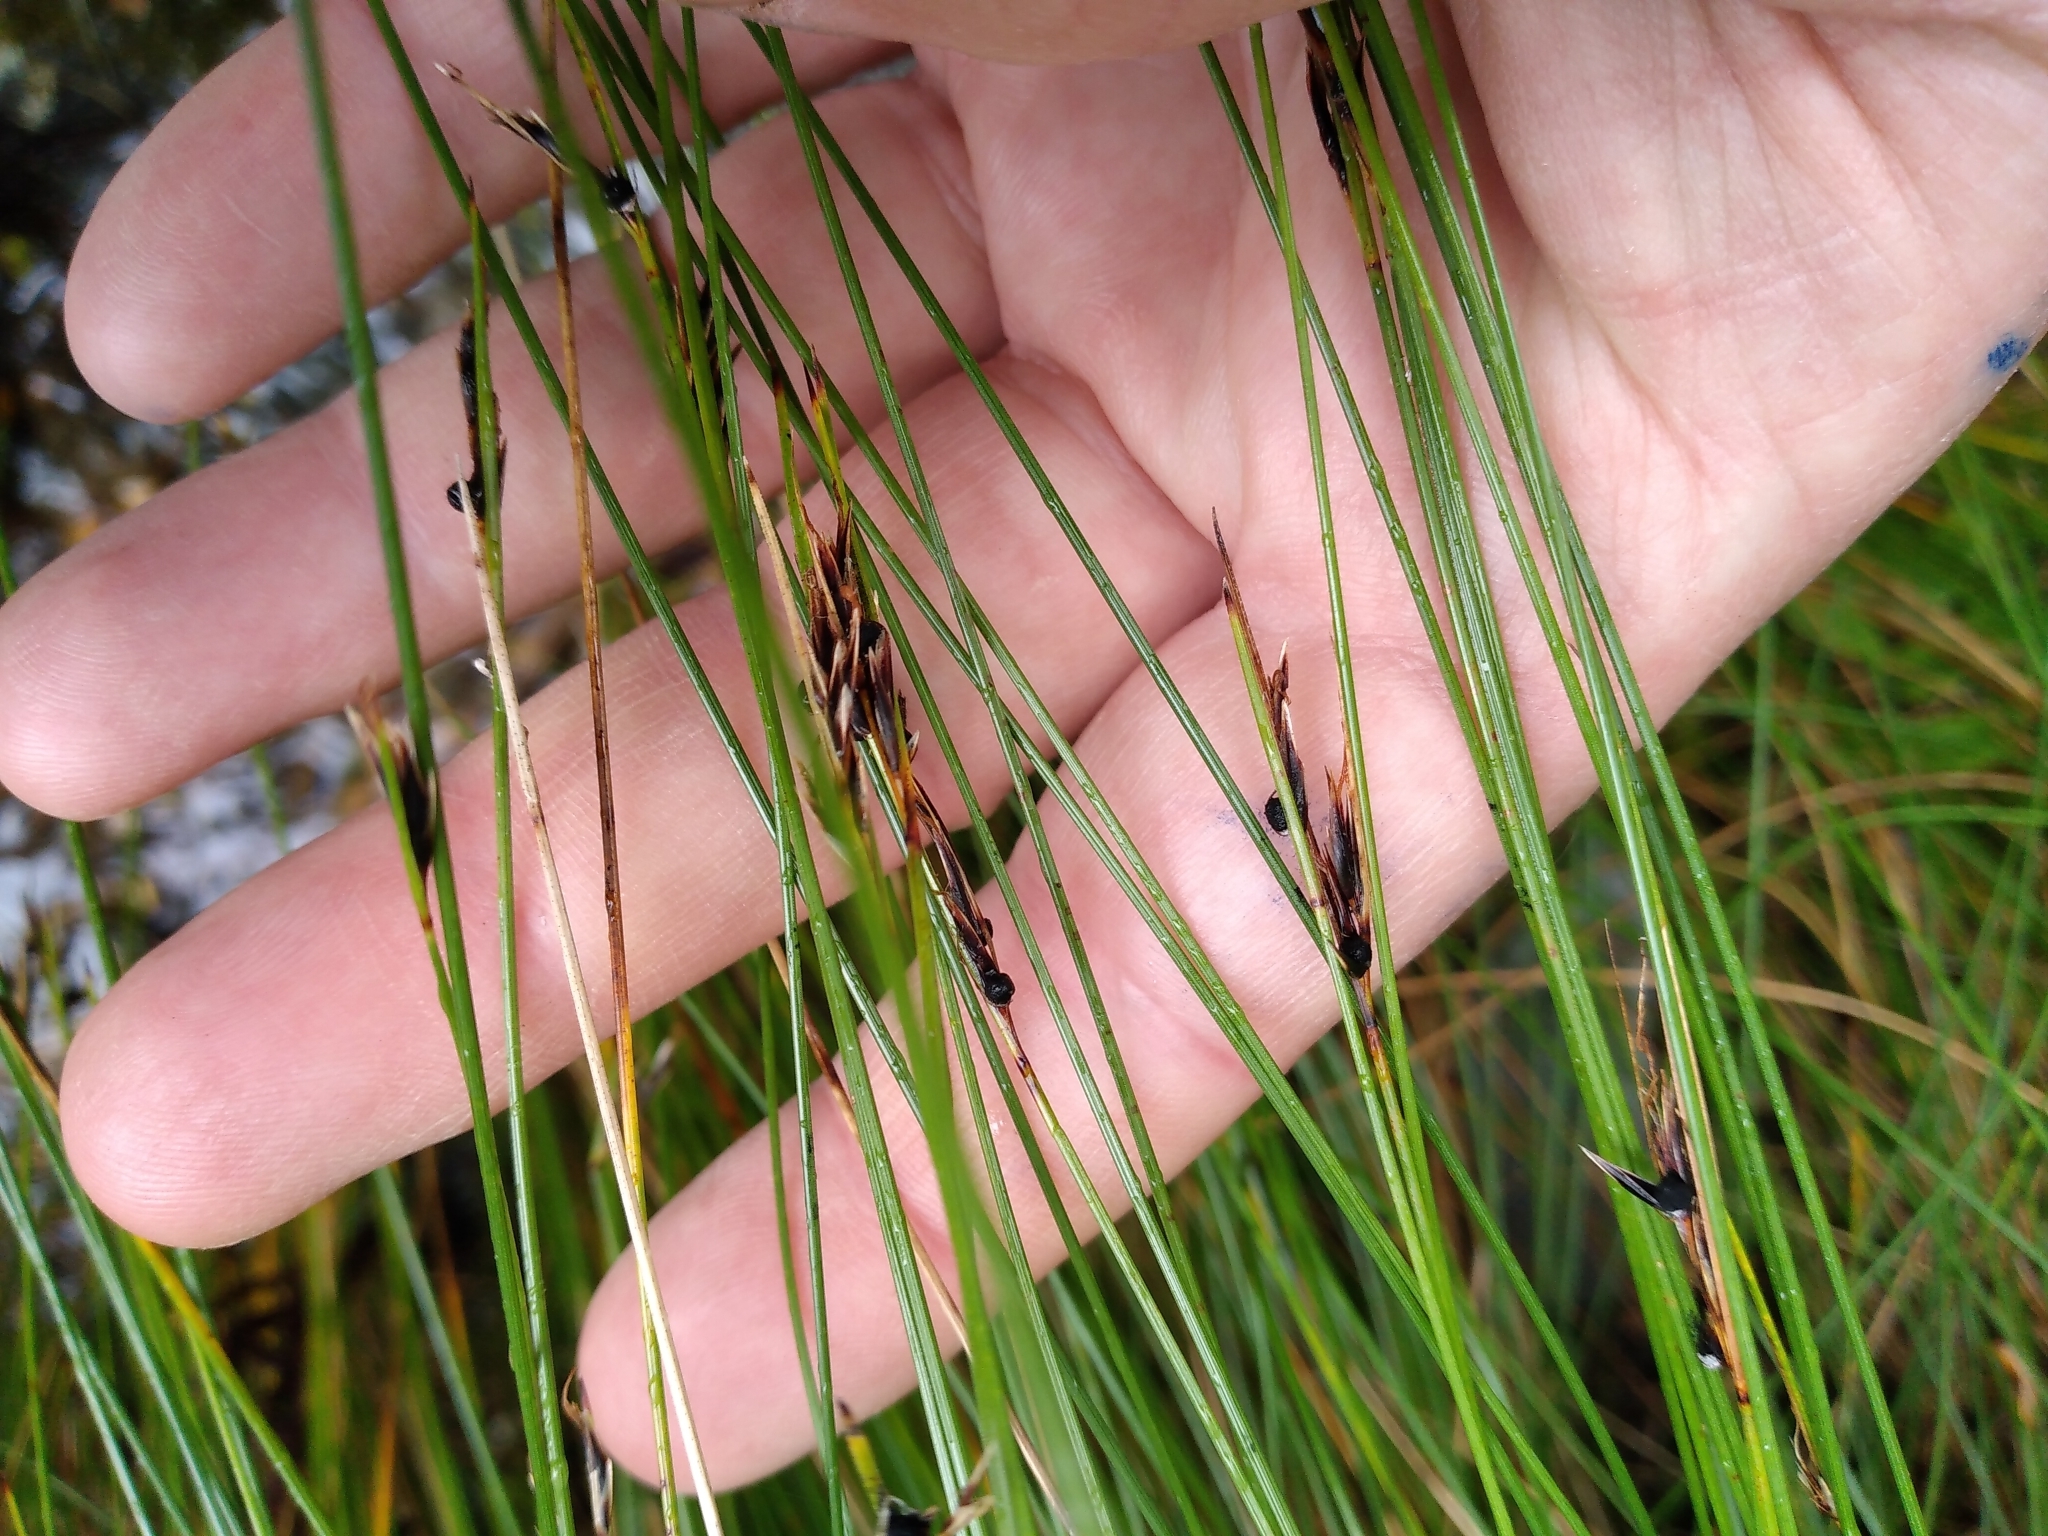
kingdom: Plantae
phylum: Tracheophyta
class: Liliopsida
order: Poales
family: Cyperaceae
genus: Schoenus
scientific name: Schoenus pauciflorus
